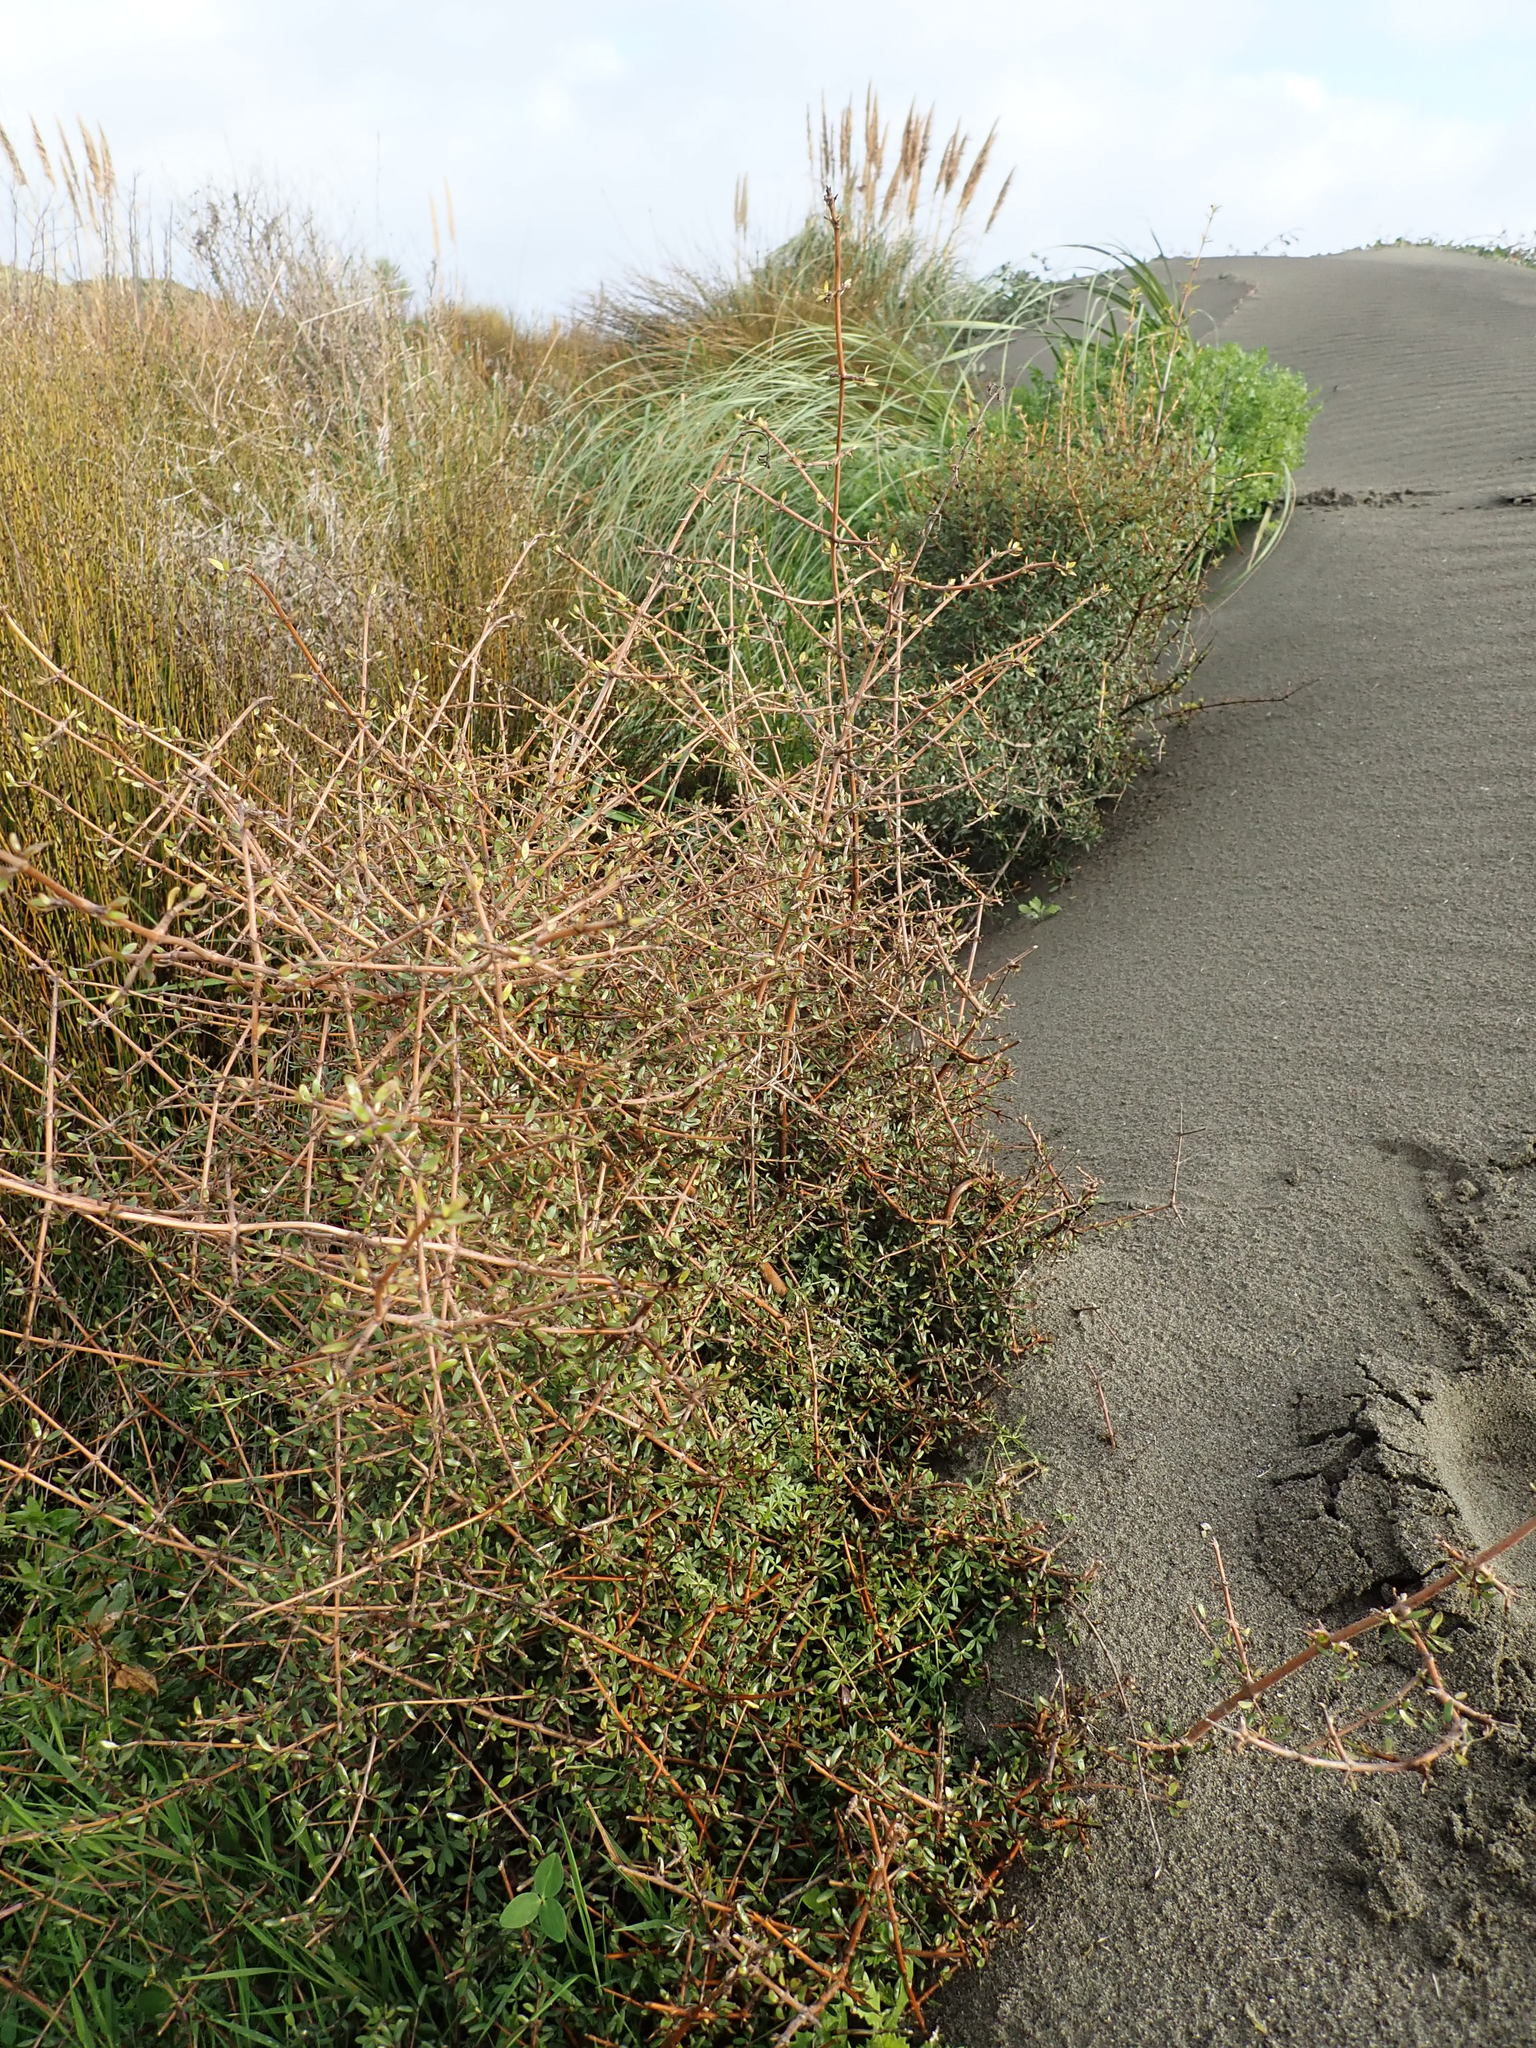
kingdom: Plantae
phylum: Tracheophyta
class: Magnoliopsida
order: Gentianales
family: Rubiaceae
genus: Coprosma
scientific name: Coprosma propinqua
